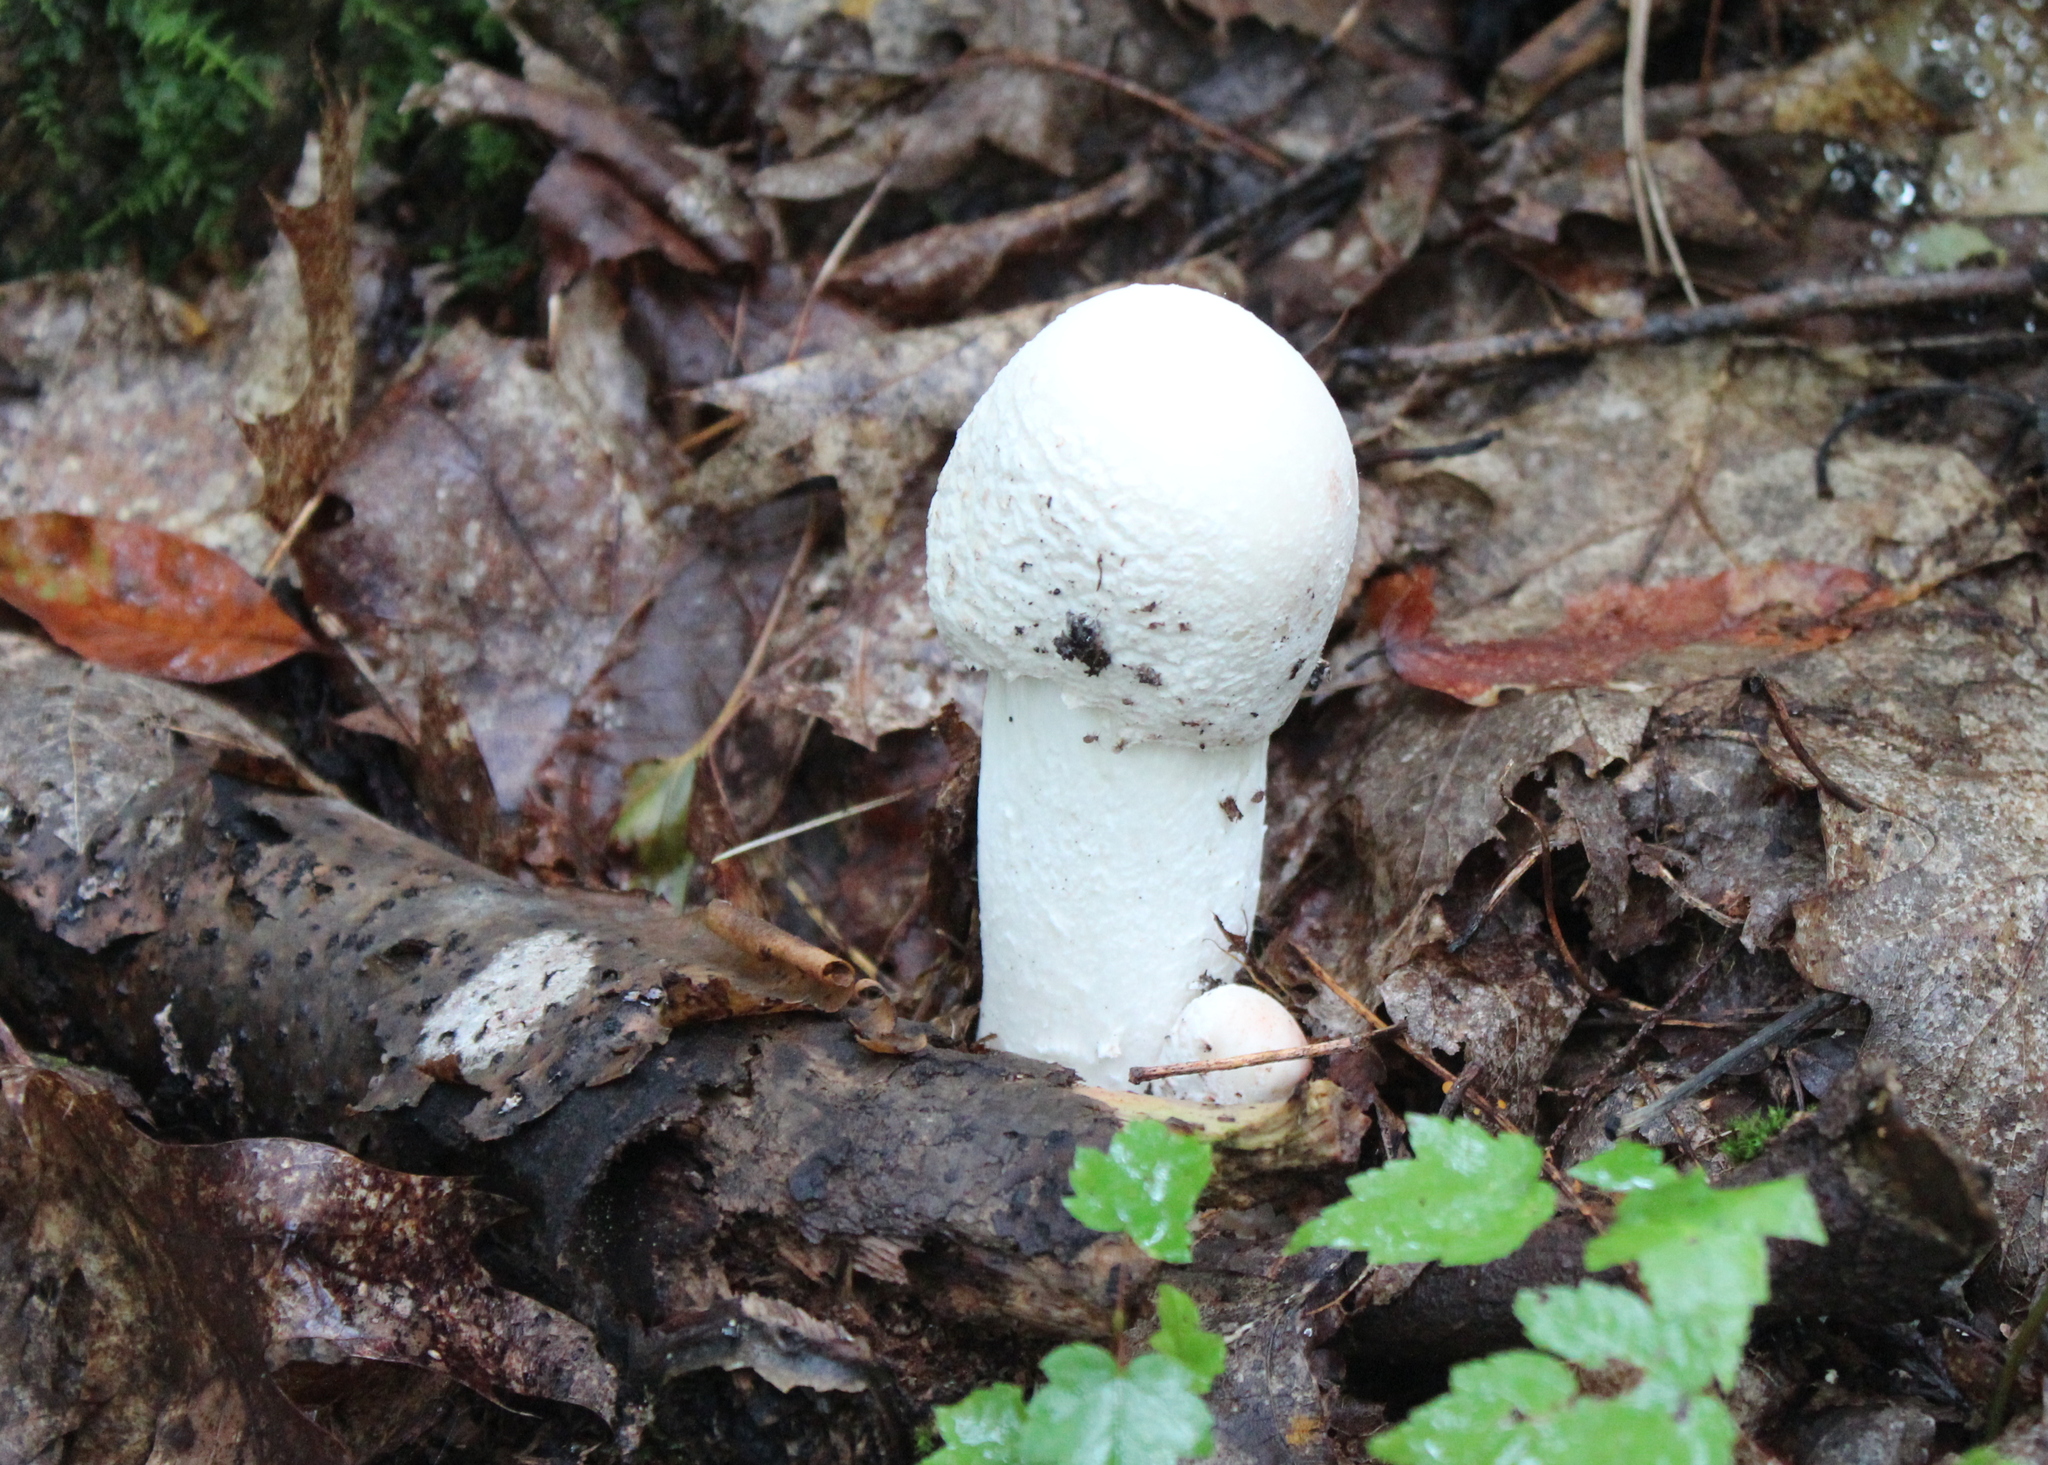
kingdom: Fungi
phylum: Ascomycota
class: Sordariomycetes
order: Hypocreales
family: Hypocreaceae
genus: Hypomyces
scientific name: Hypomyces hyalinus
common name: Amanita mold
